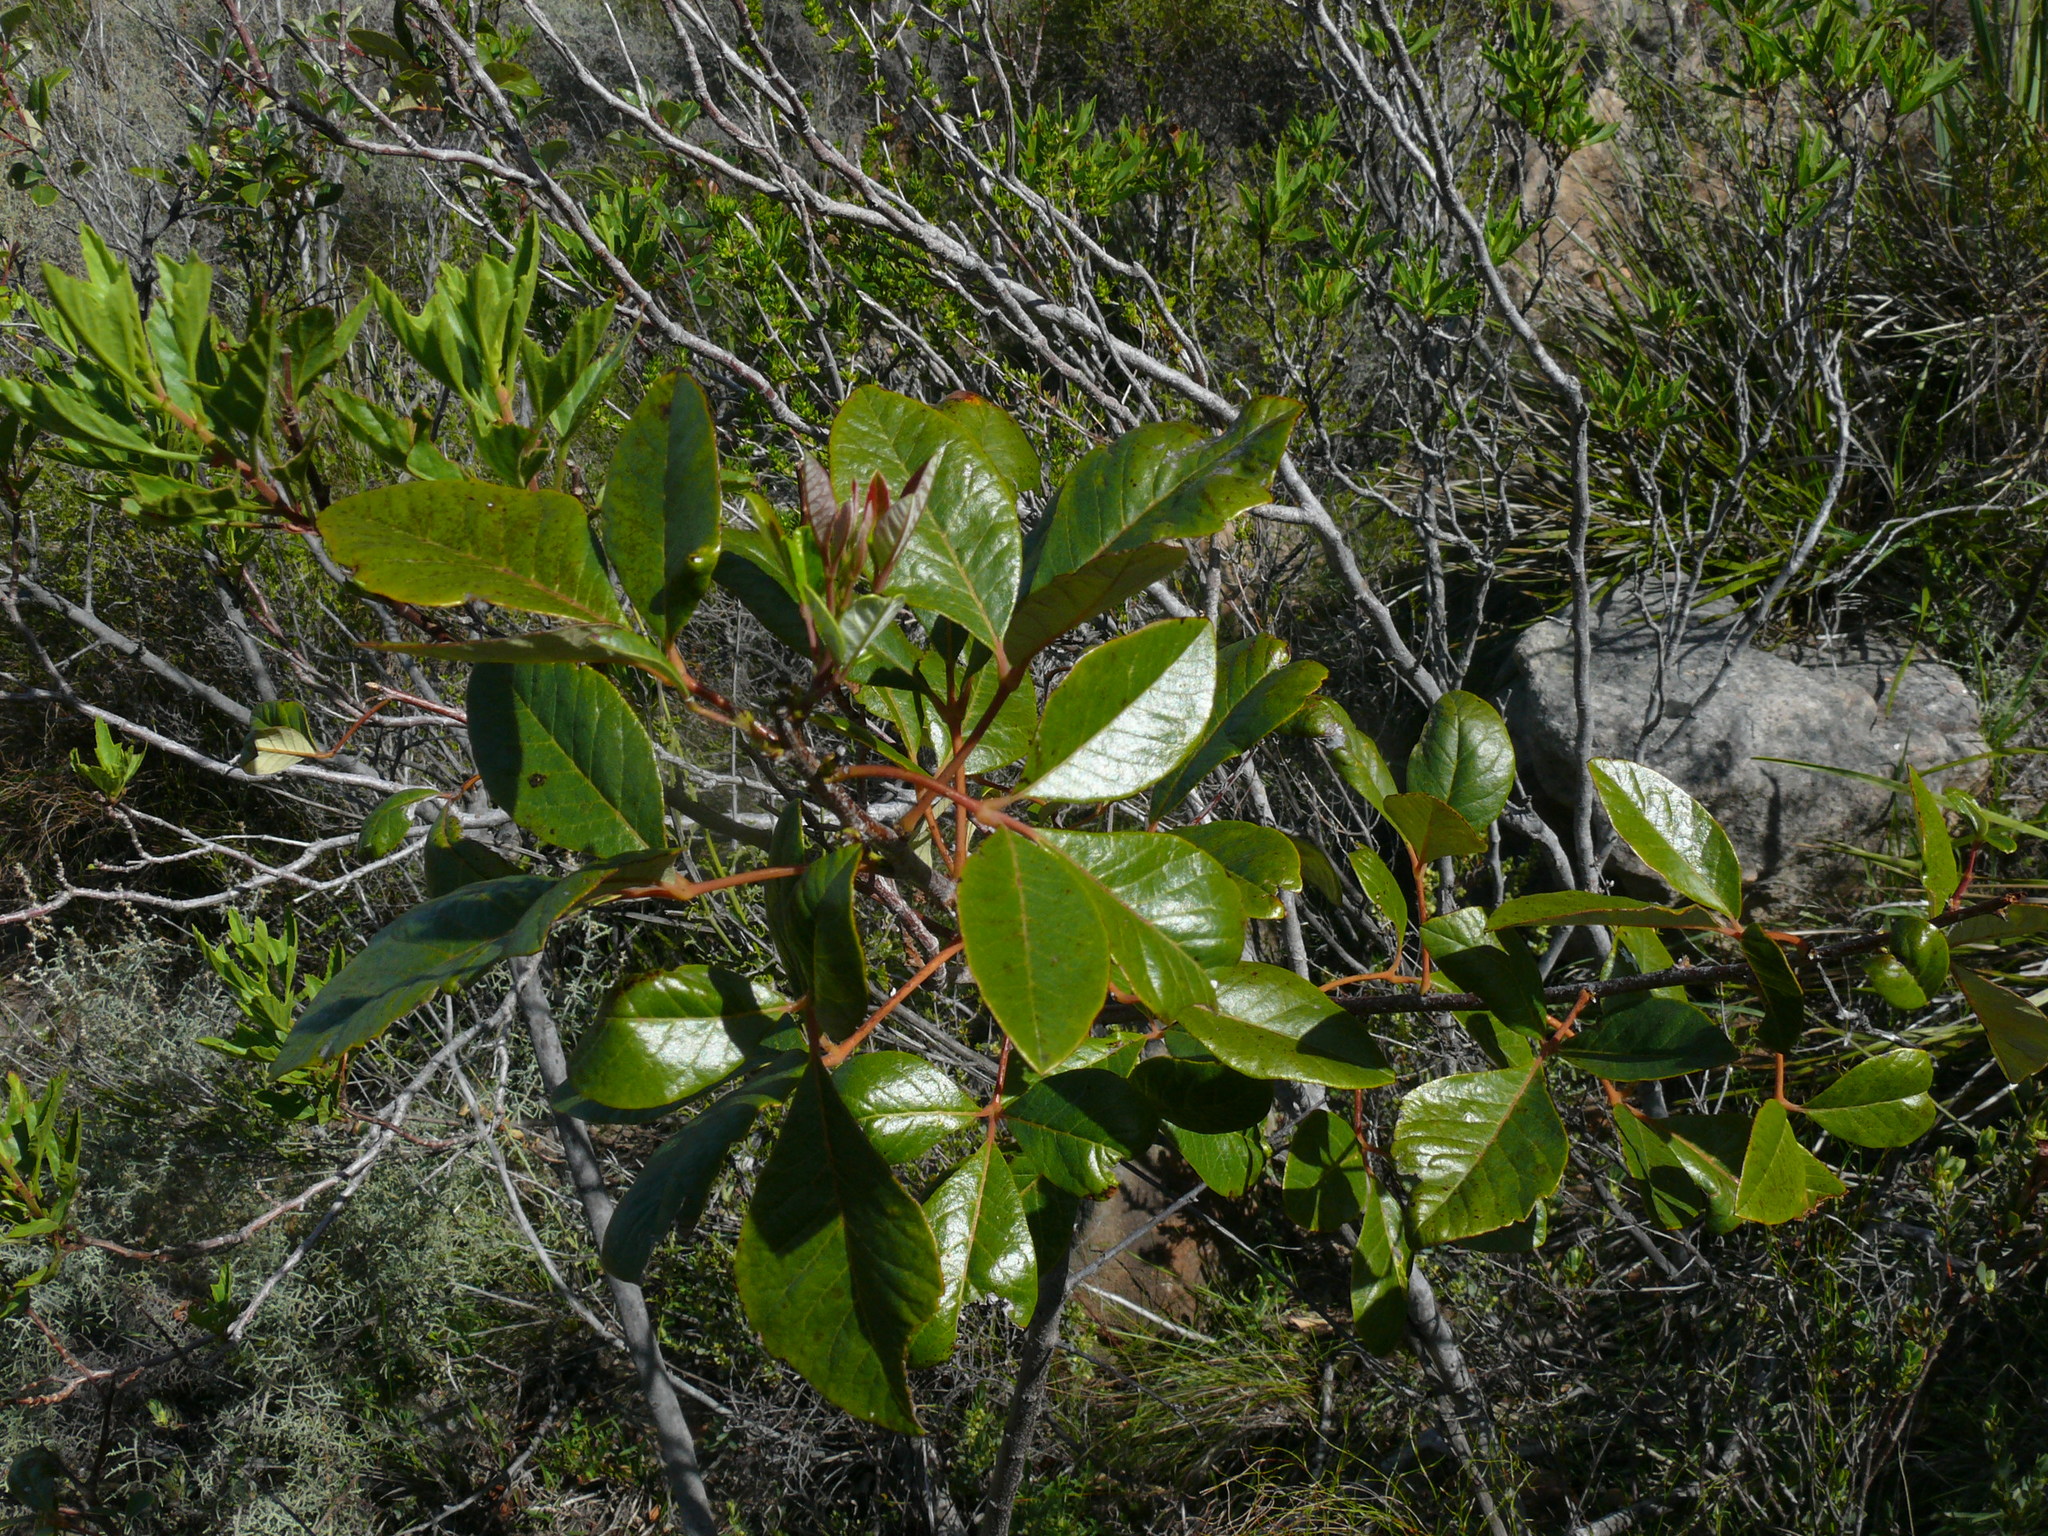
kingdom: Plantae
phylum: Tracheophyta
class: Magnoliopsida
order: Sapindales
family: Anacardiaceae
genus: Searsia
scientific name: Searsia tomentosa
